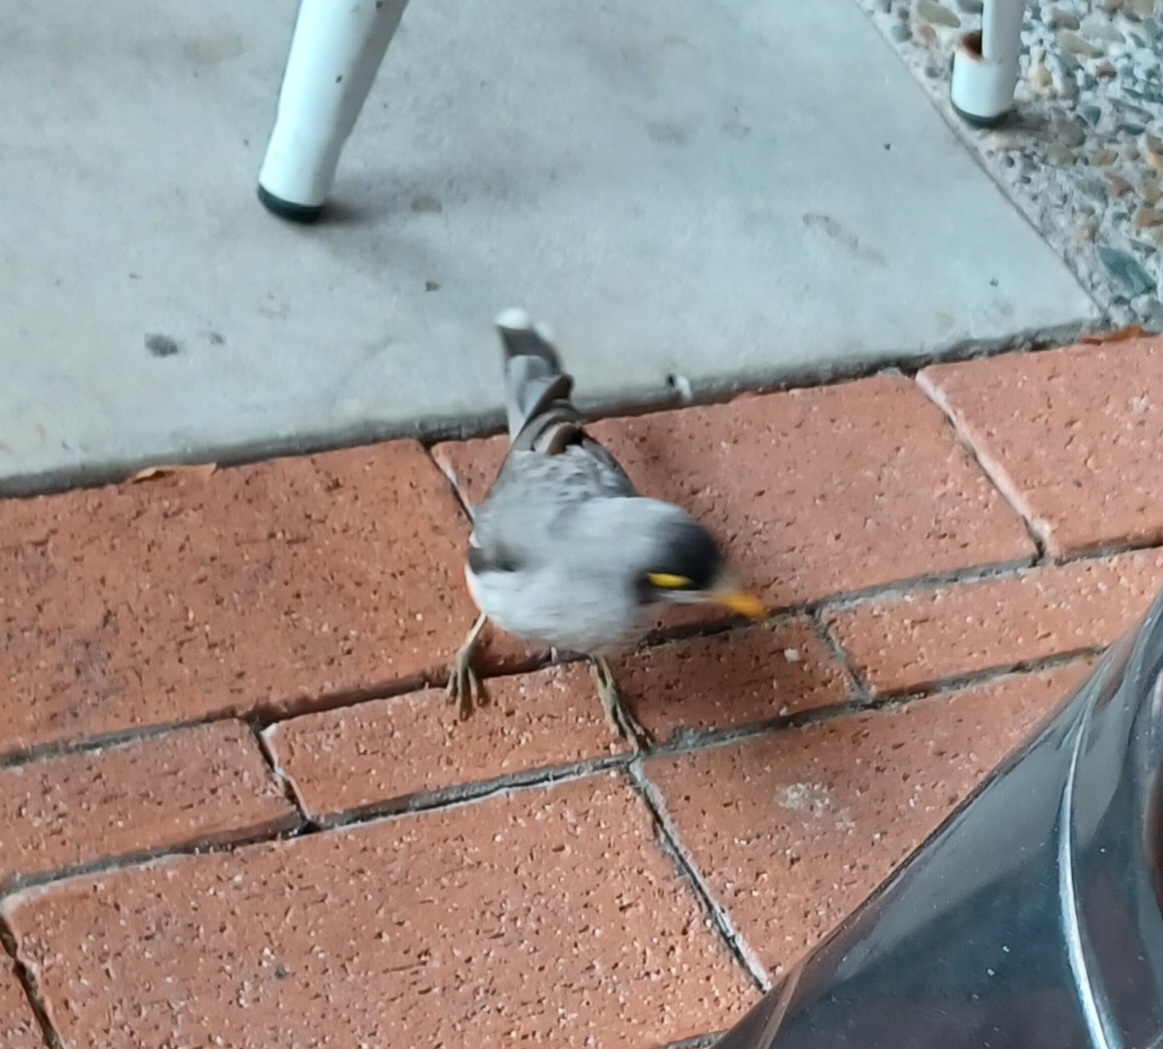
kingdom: Animalia
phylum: Chordata
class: Aves
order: Passeriformes
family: Meliphagidae
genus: Manorina
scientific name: Manorina melanocephala
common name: Noisy miner
